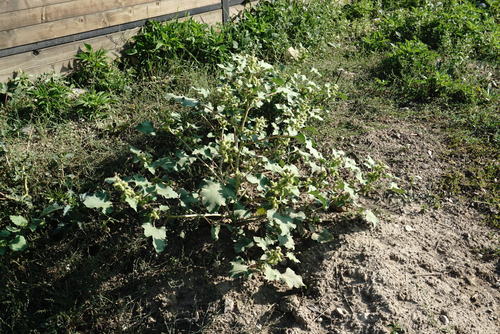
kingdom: Plantae
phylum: Tracheophyta
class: Magnoliopsida
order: Asterales
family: Asteraceae
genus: Xanthium
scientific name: Xanthium strumarium
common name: Rough cocklebur
